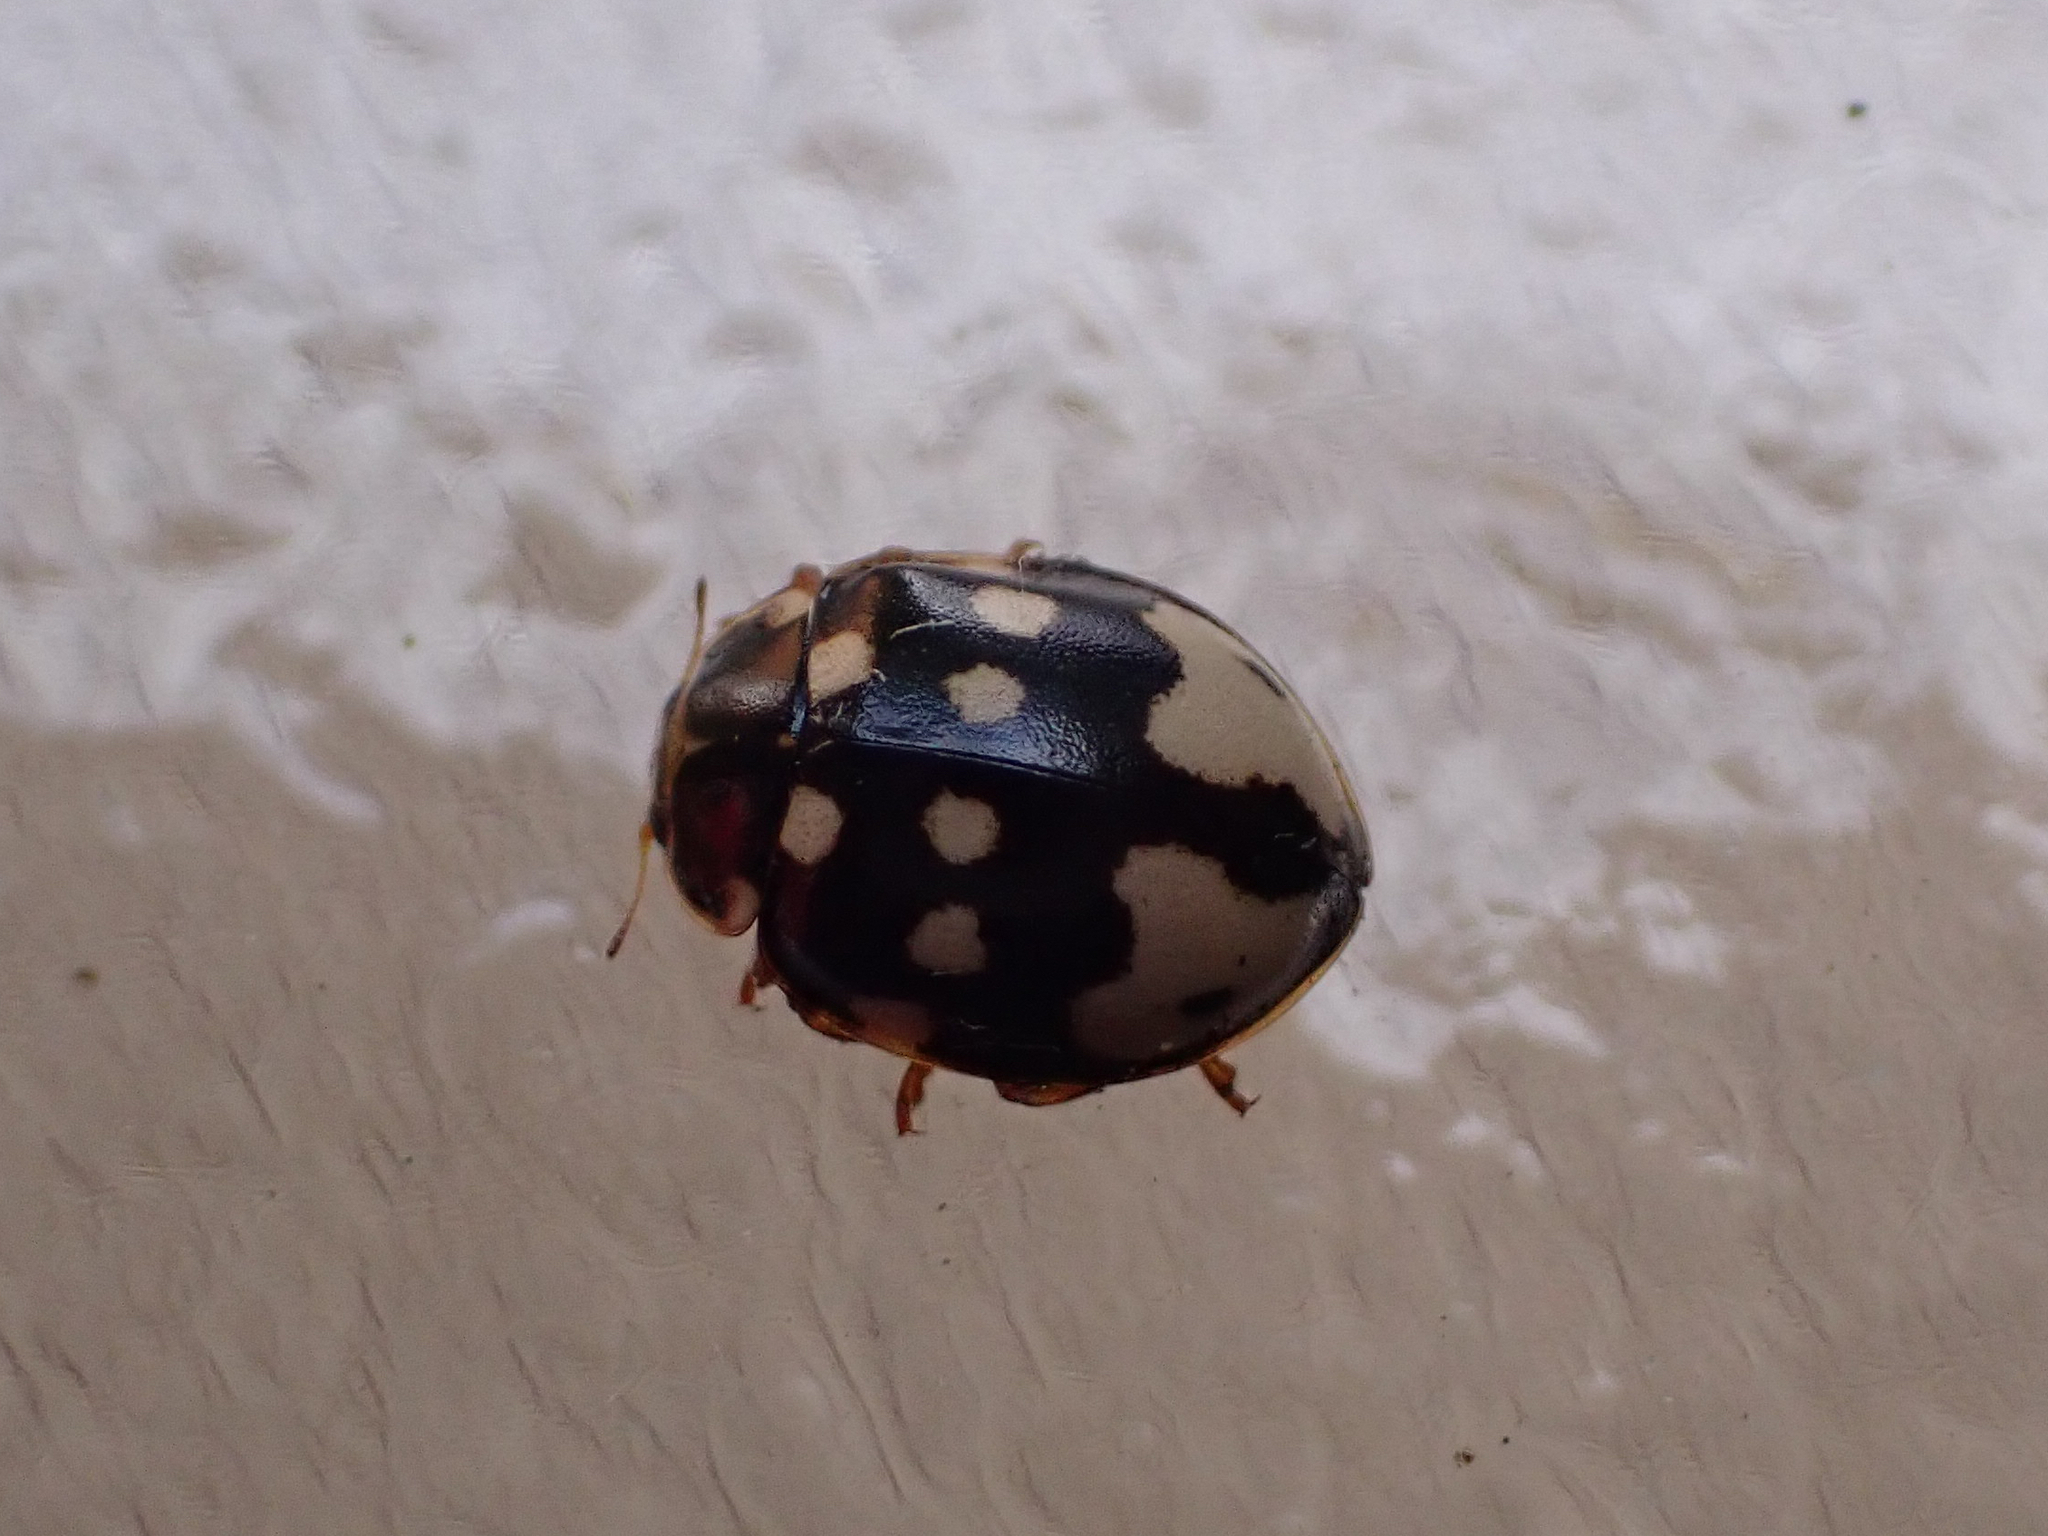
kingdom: Animalia
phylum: Arthropoda
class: Insecta
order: Coleoptera
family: Coccinellidae
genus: Calvia
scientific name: Calvia quatuordecimguttata
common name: Cream-spot ladybird
